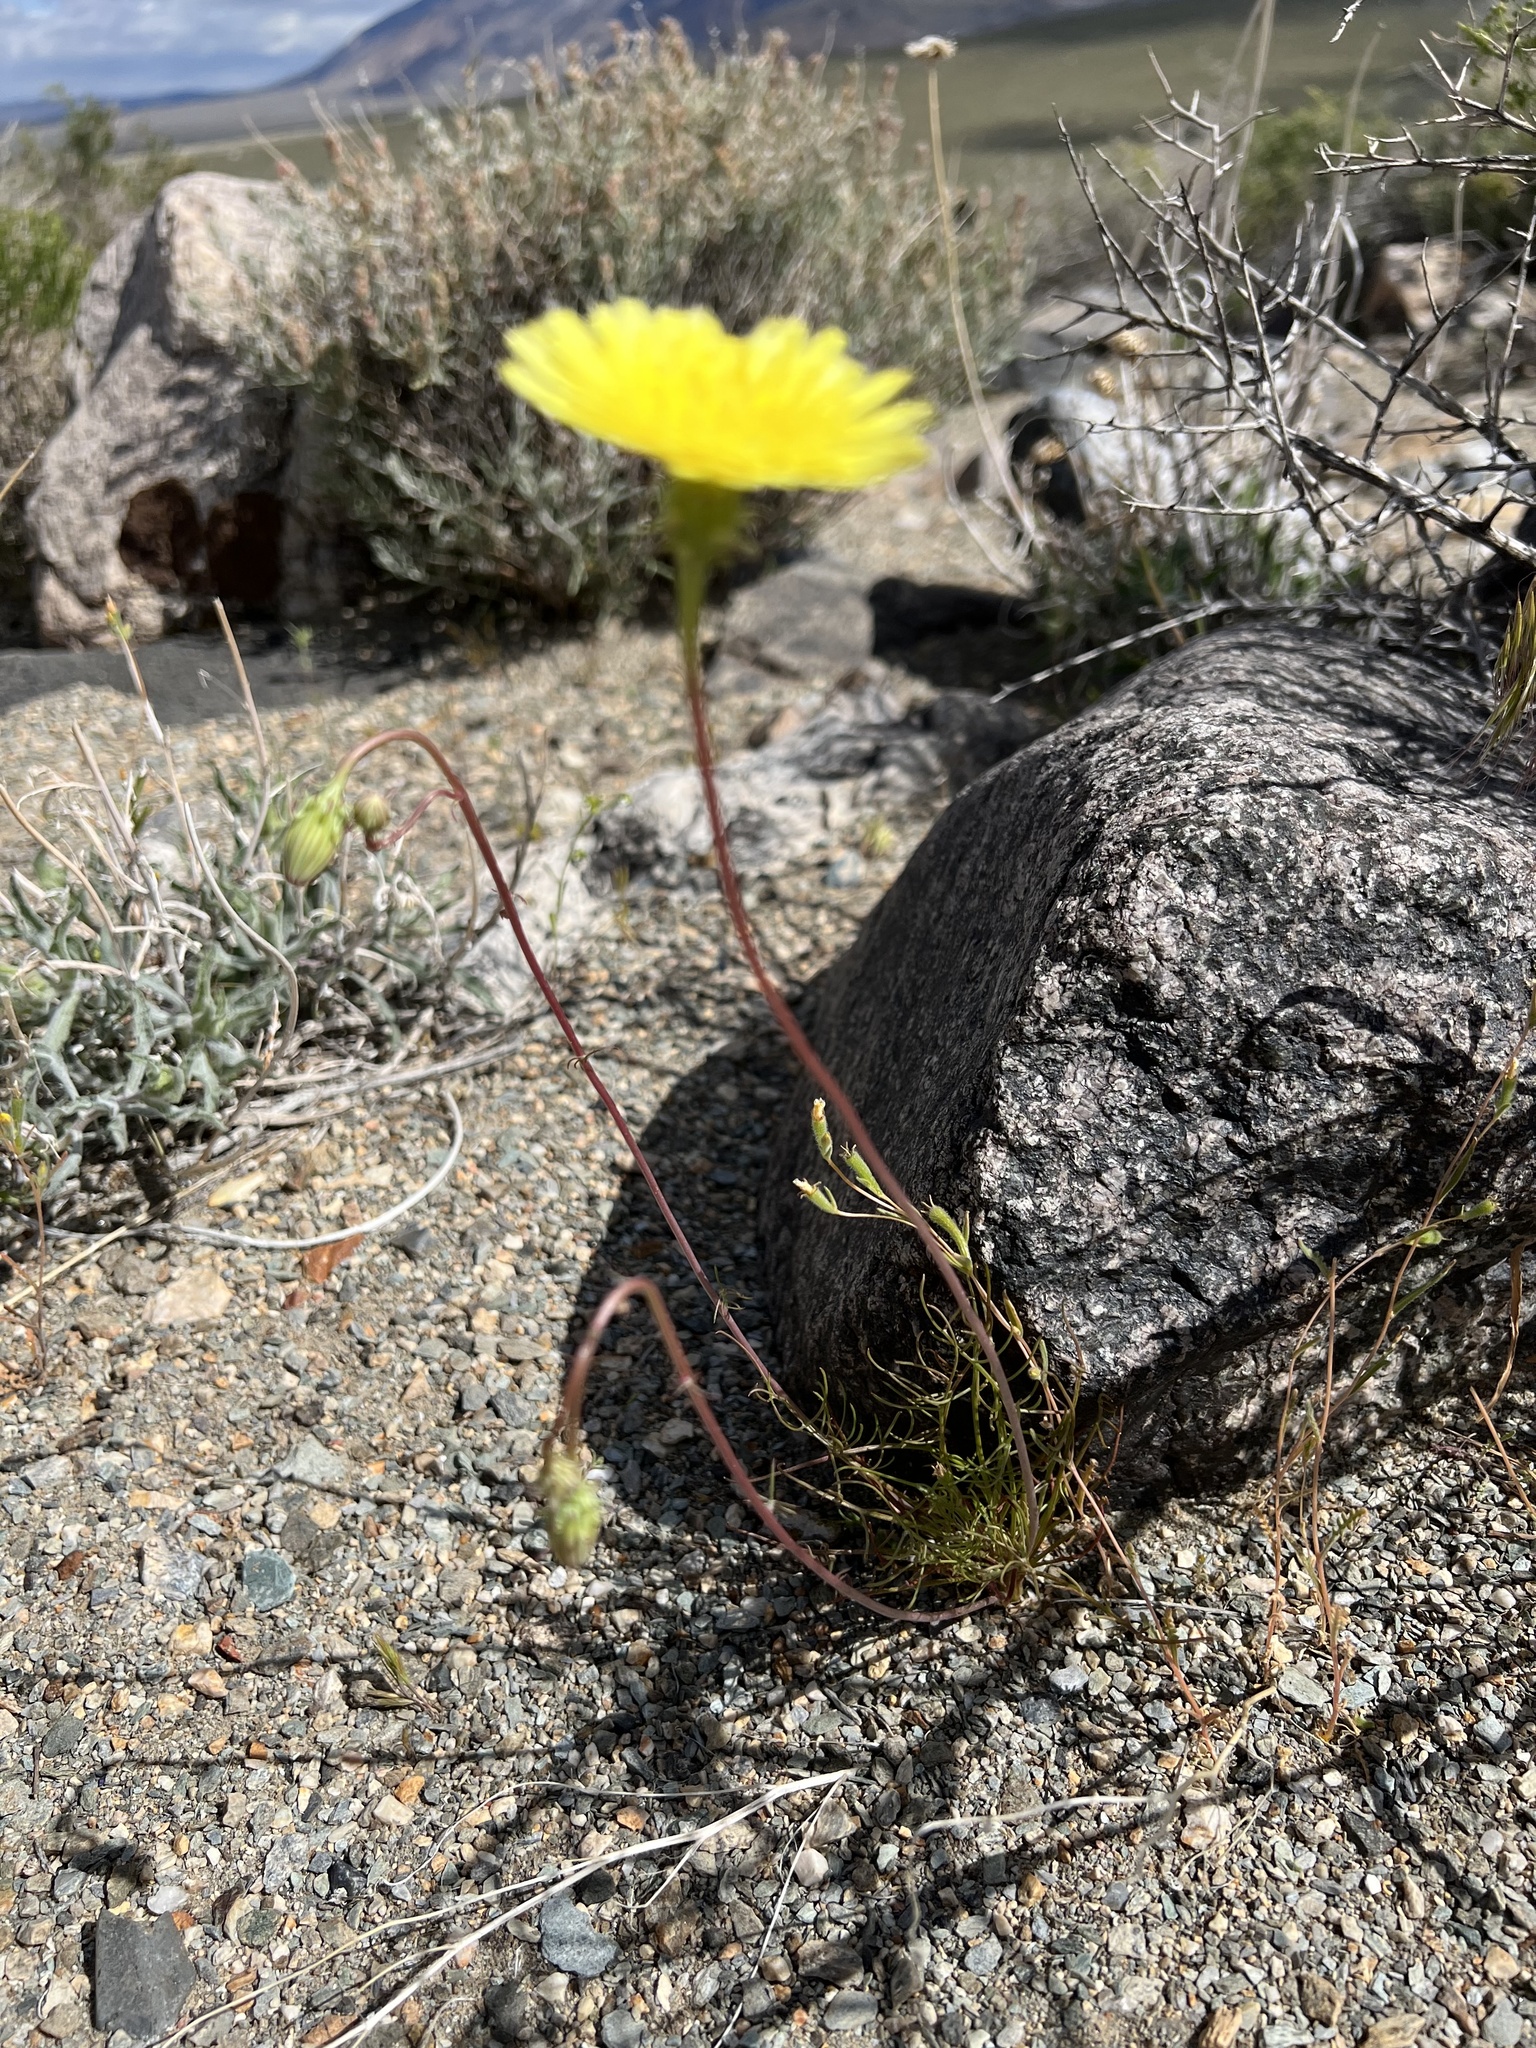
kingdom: Plantae
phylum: Tracheophyta
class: Magnoliopsida
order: Asterales
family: Asteraceae
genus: Malacothrix
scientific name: Malacothrix glabrata
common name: Smooth desert-dandelion
